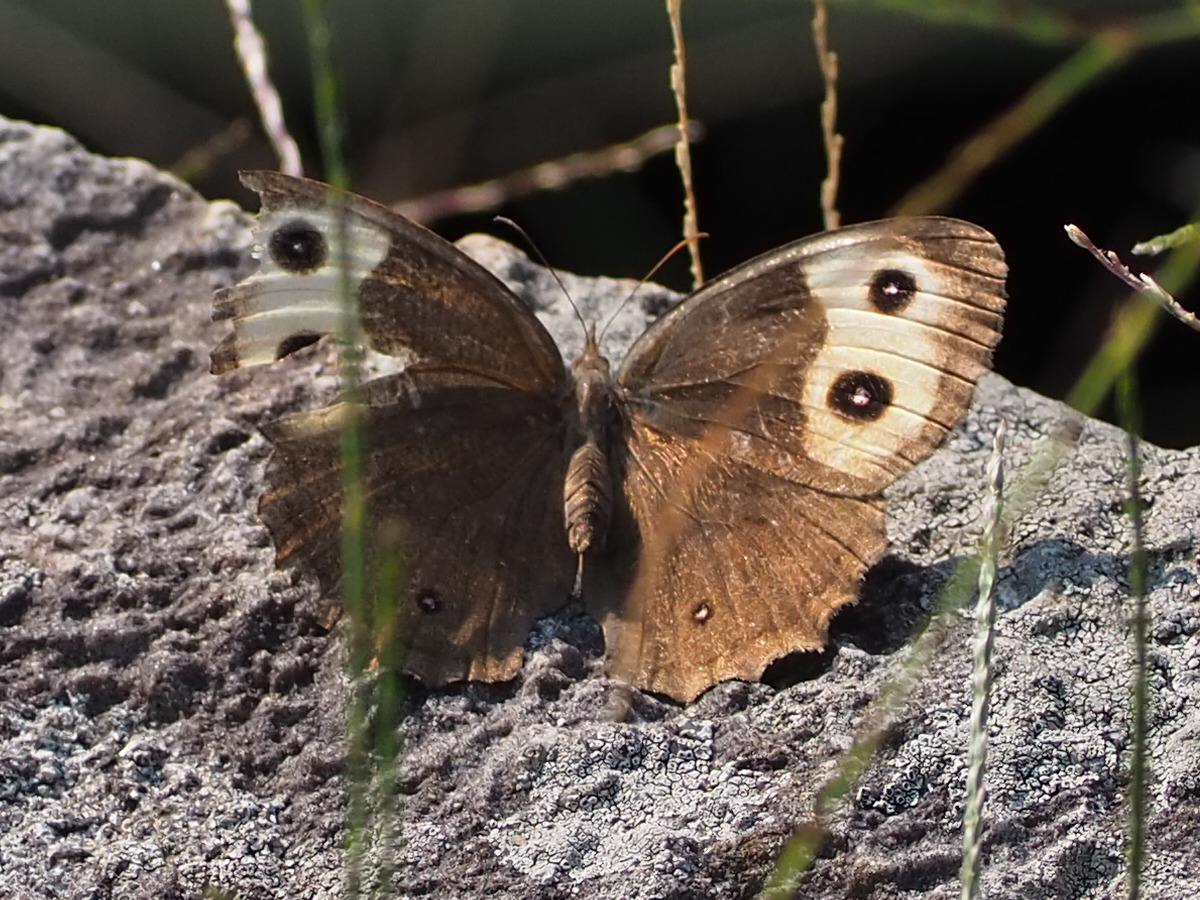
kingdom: Animalia
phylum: Arthropoda
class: Insecta
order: Lepidoptera
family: Nymphalidae
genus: Cercyonis
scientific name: Cercyonis pegala
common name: Common wood-nymph
